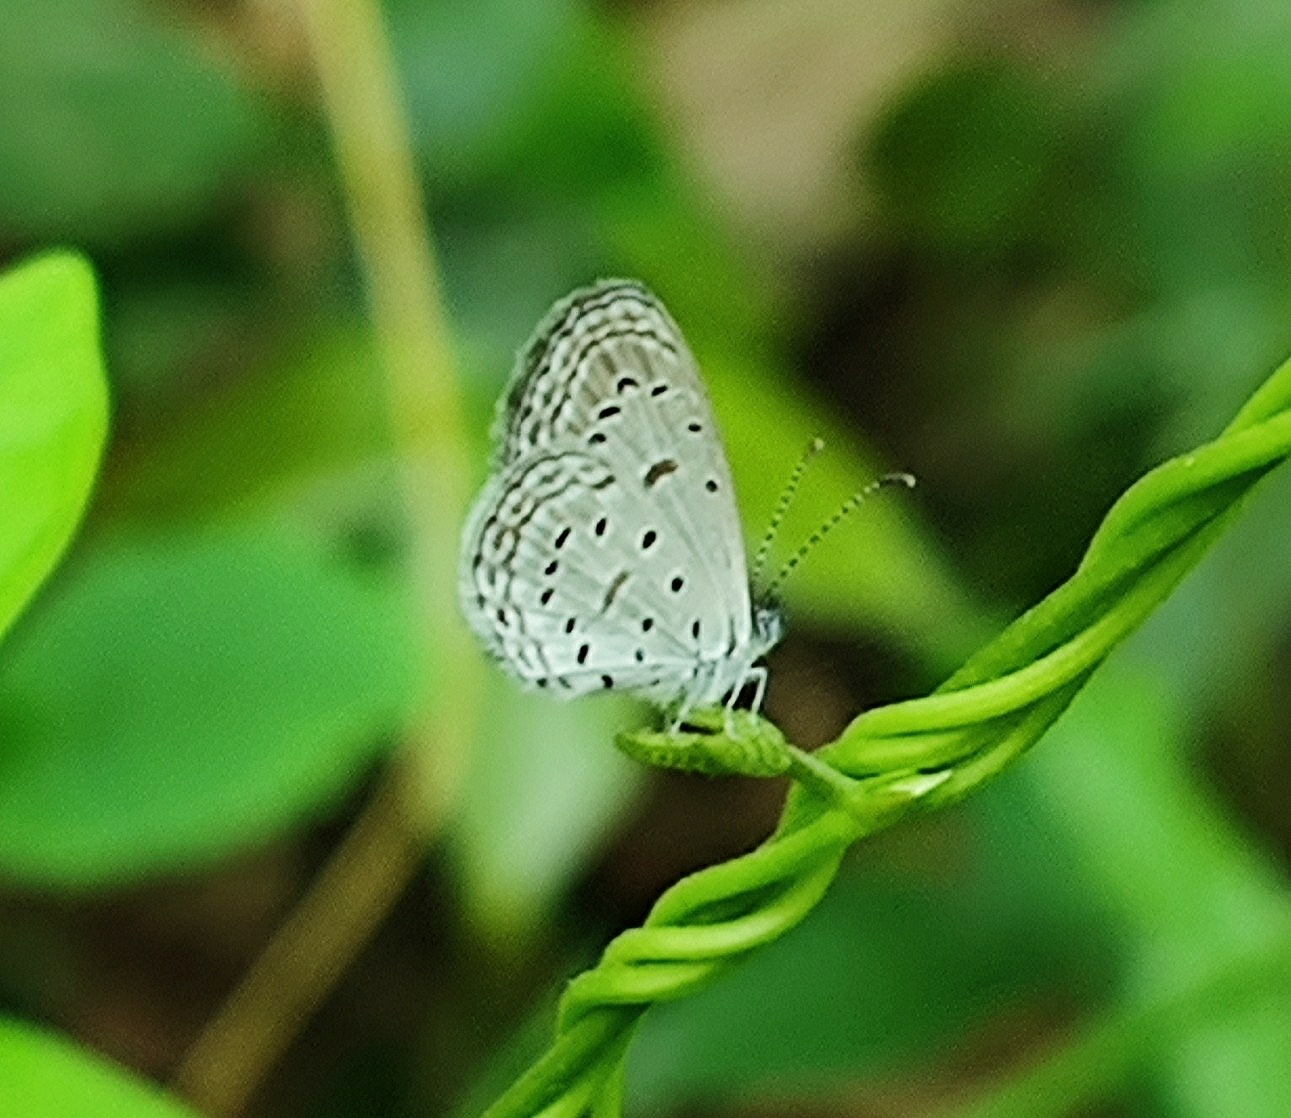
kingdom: Animalia
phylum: Arthropoda
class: Insecta
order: Lepidoptera
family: Lycaenidae
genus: Zizula
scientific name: Zizula hylax
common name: Gaika blue
